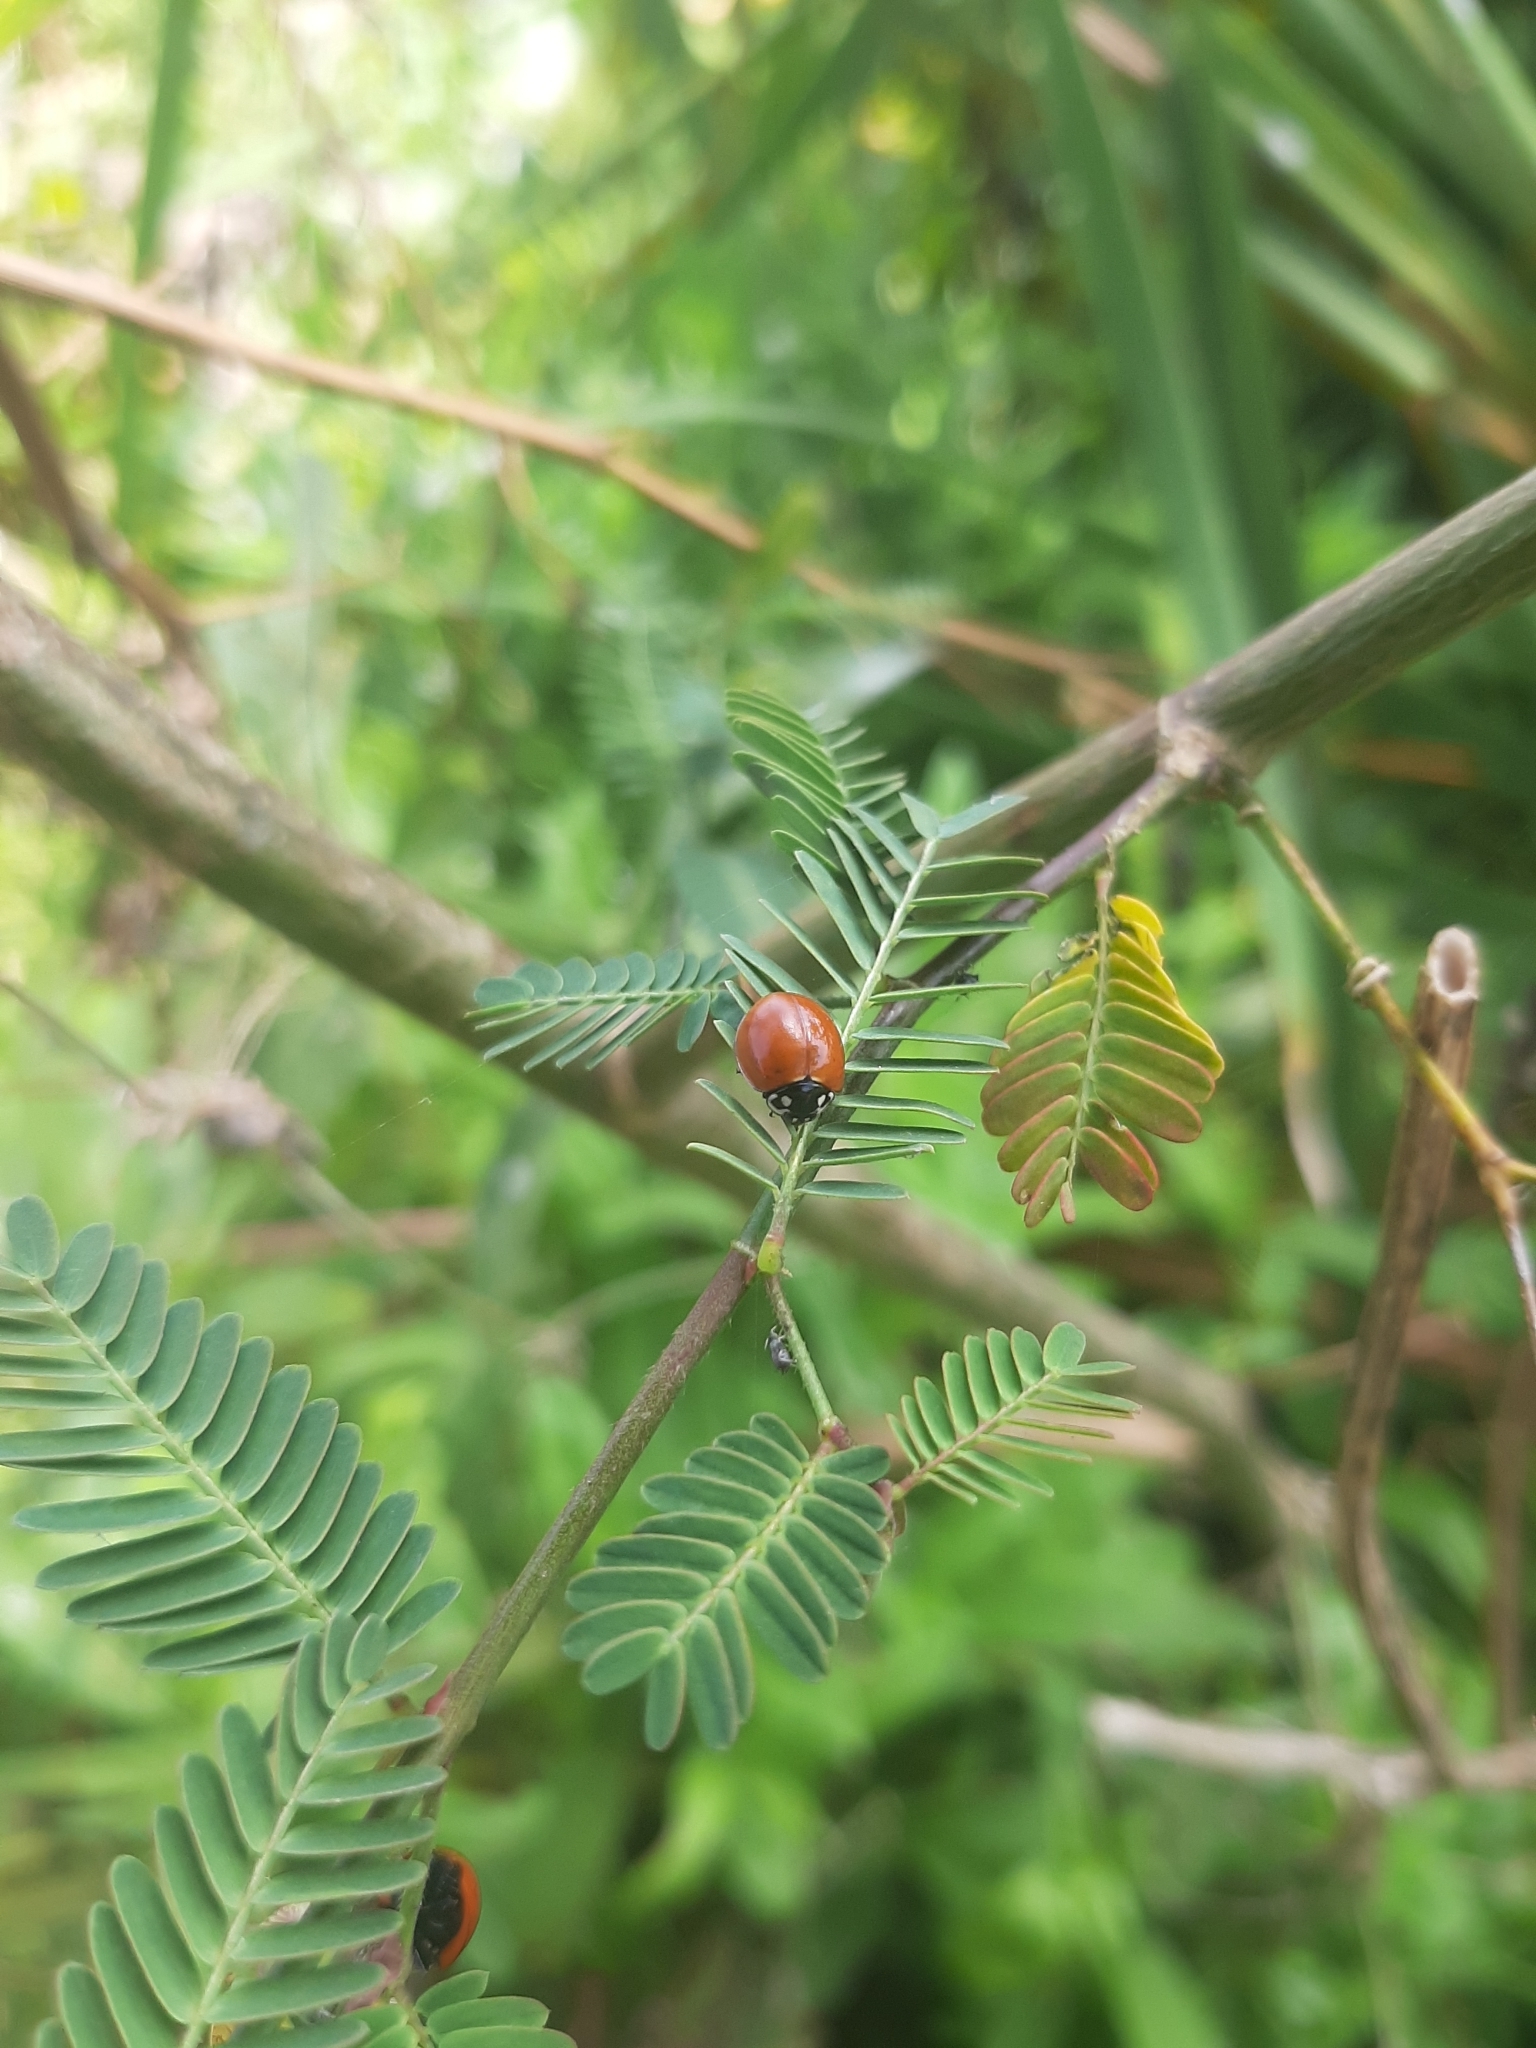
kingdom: Animalia
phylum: Arthropoda
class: Insecta
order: Coleoptera
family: Coccinellidae
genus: Cycloneda
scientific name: Cycloneda sanguinea
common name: Ladybird beetle
